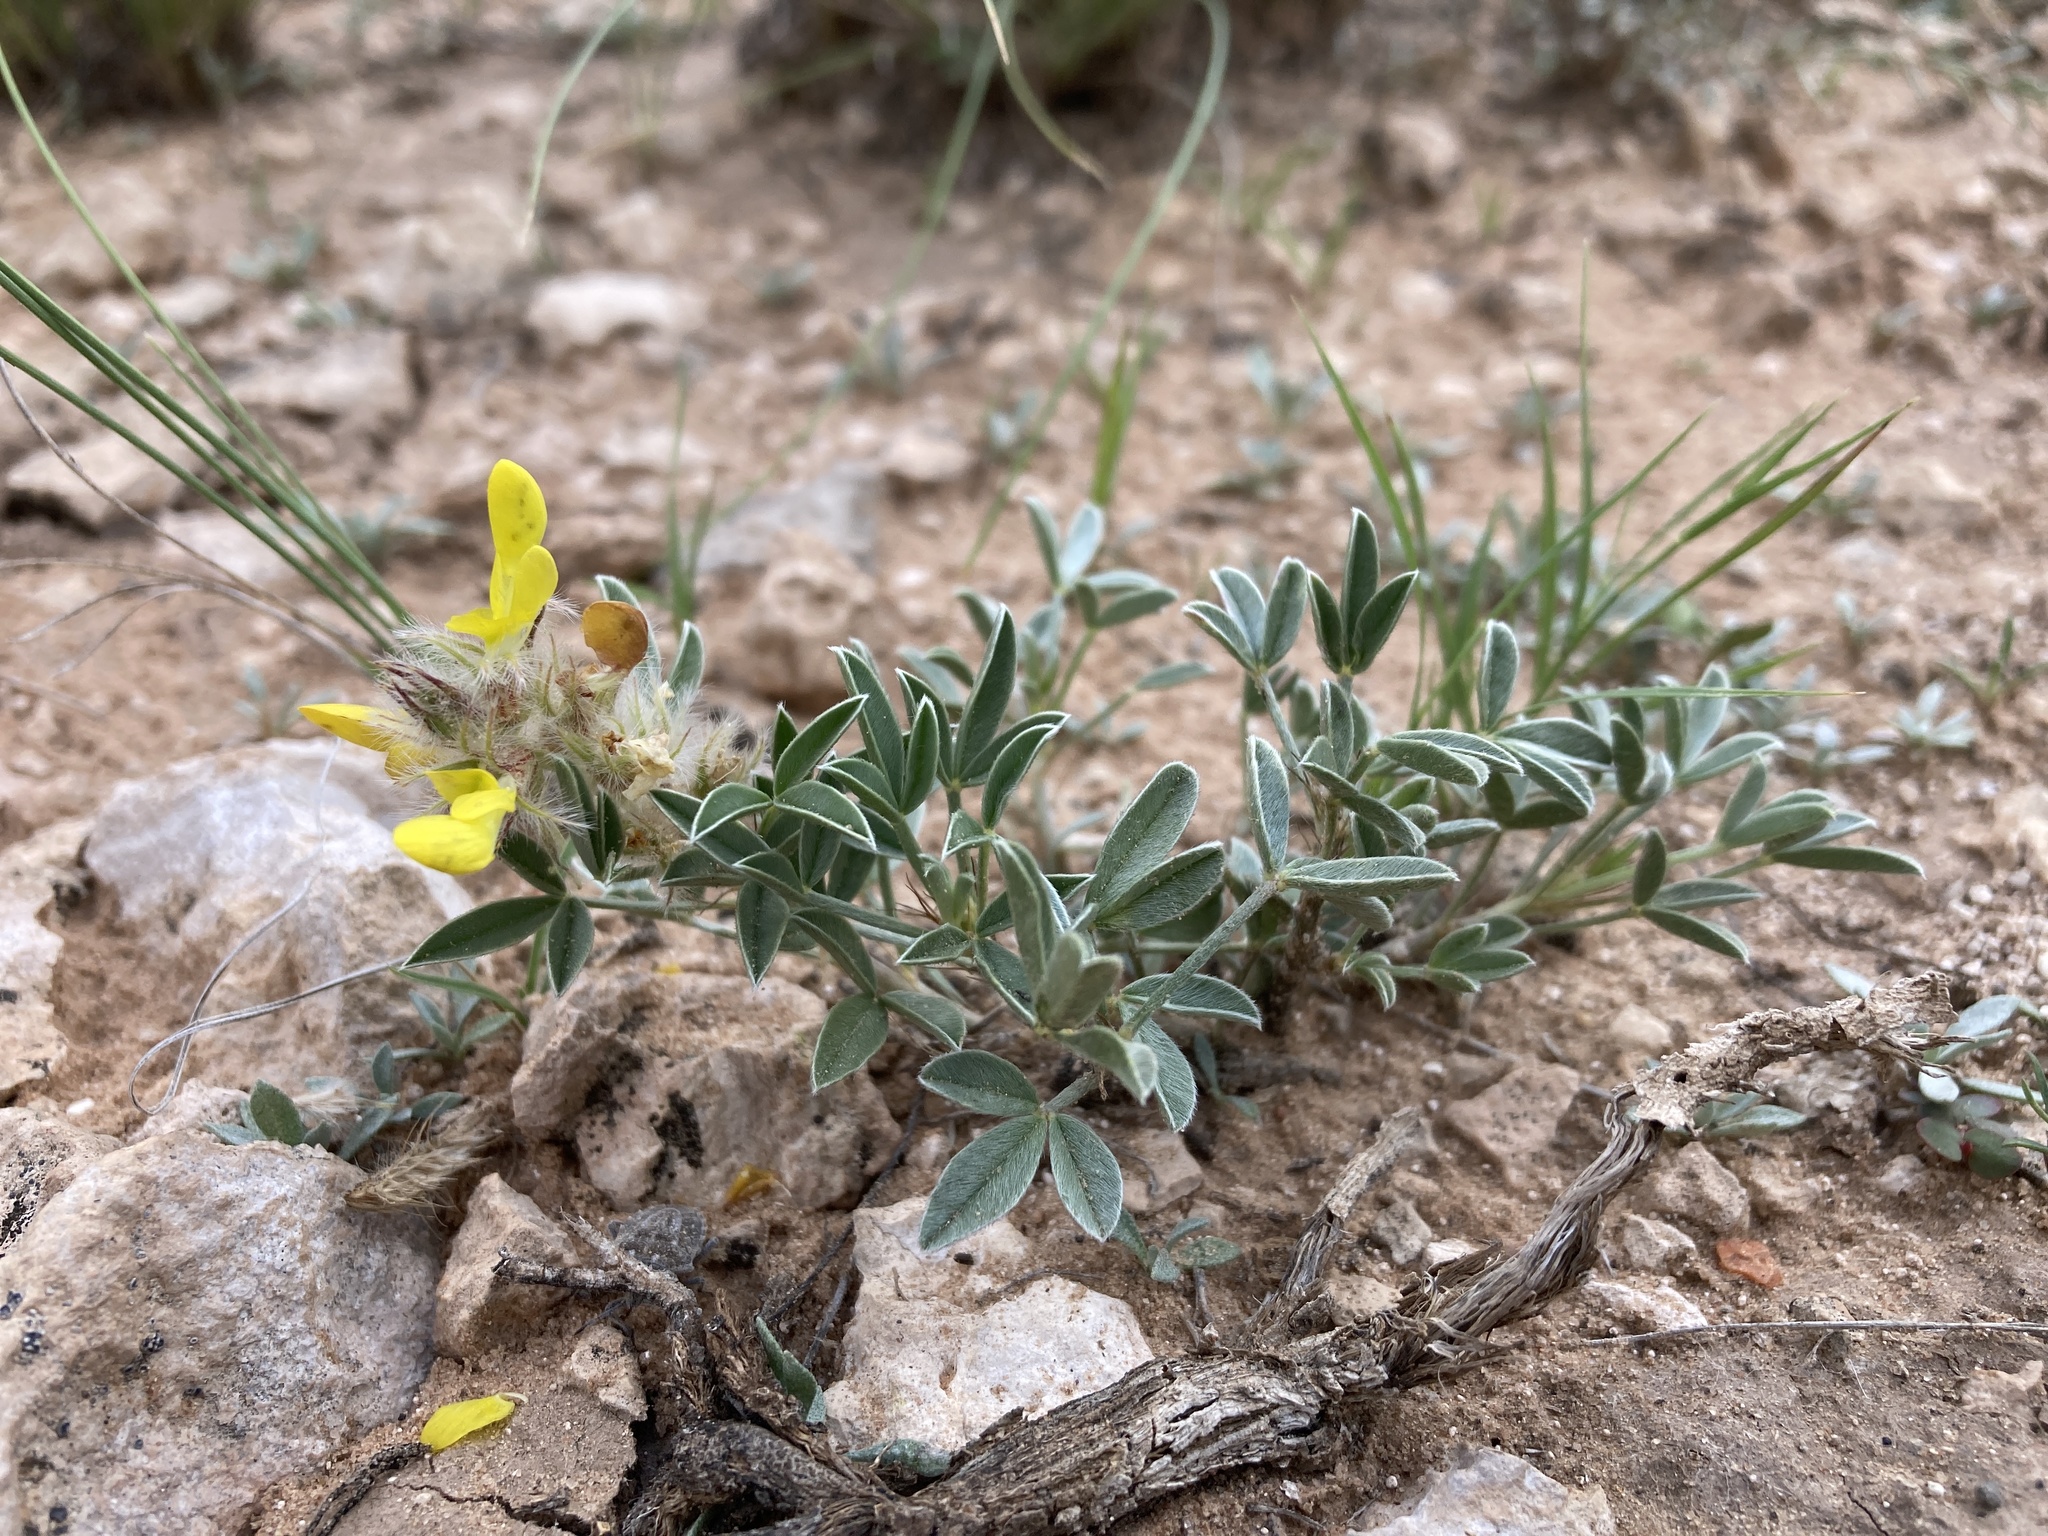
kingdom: Plantae
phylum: Tracheophyta
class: Magnoliopsida
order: Fabales
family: Fabaceae
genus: Dalea
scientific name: Dalea jamesii
